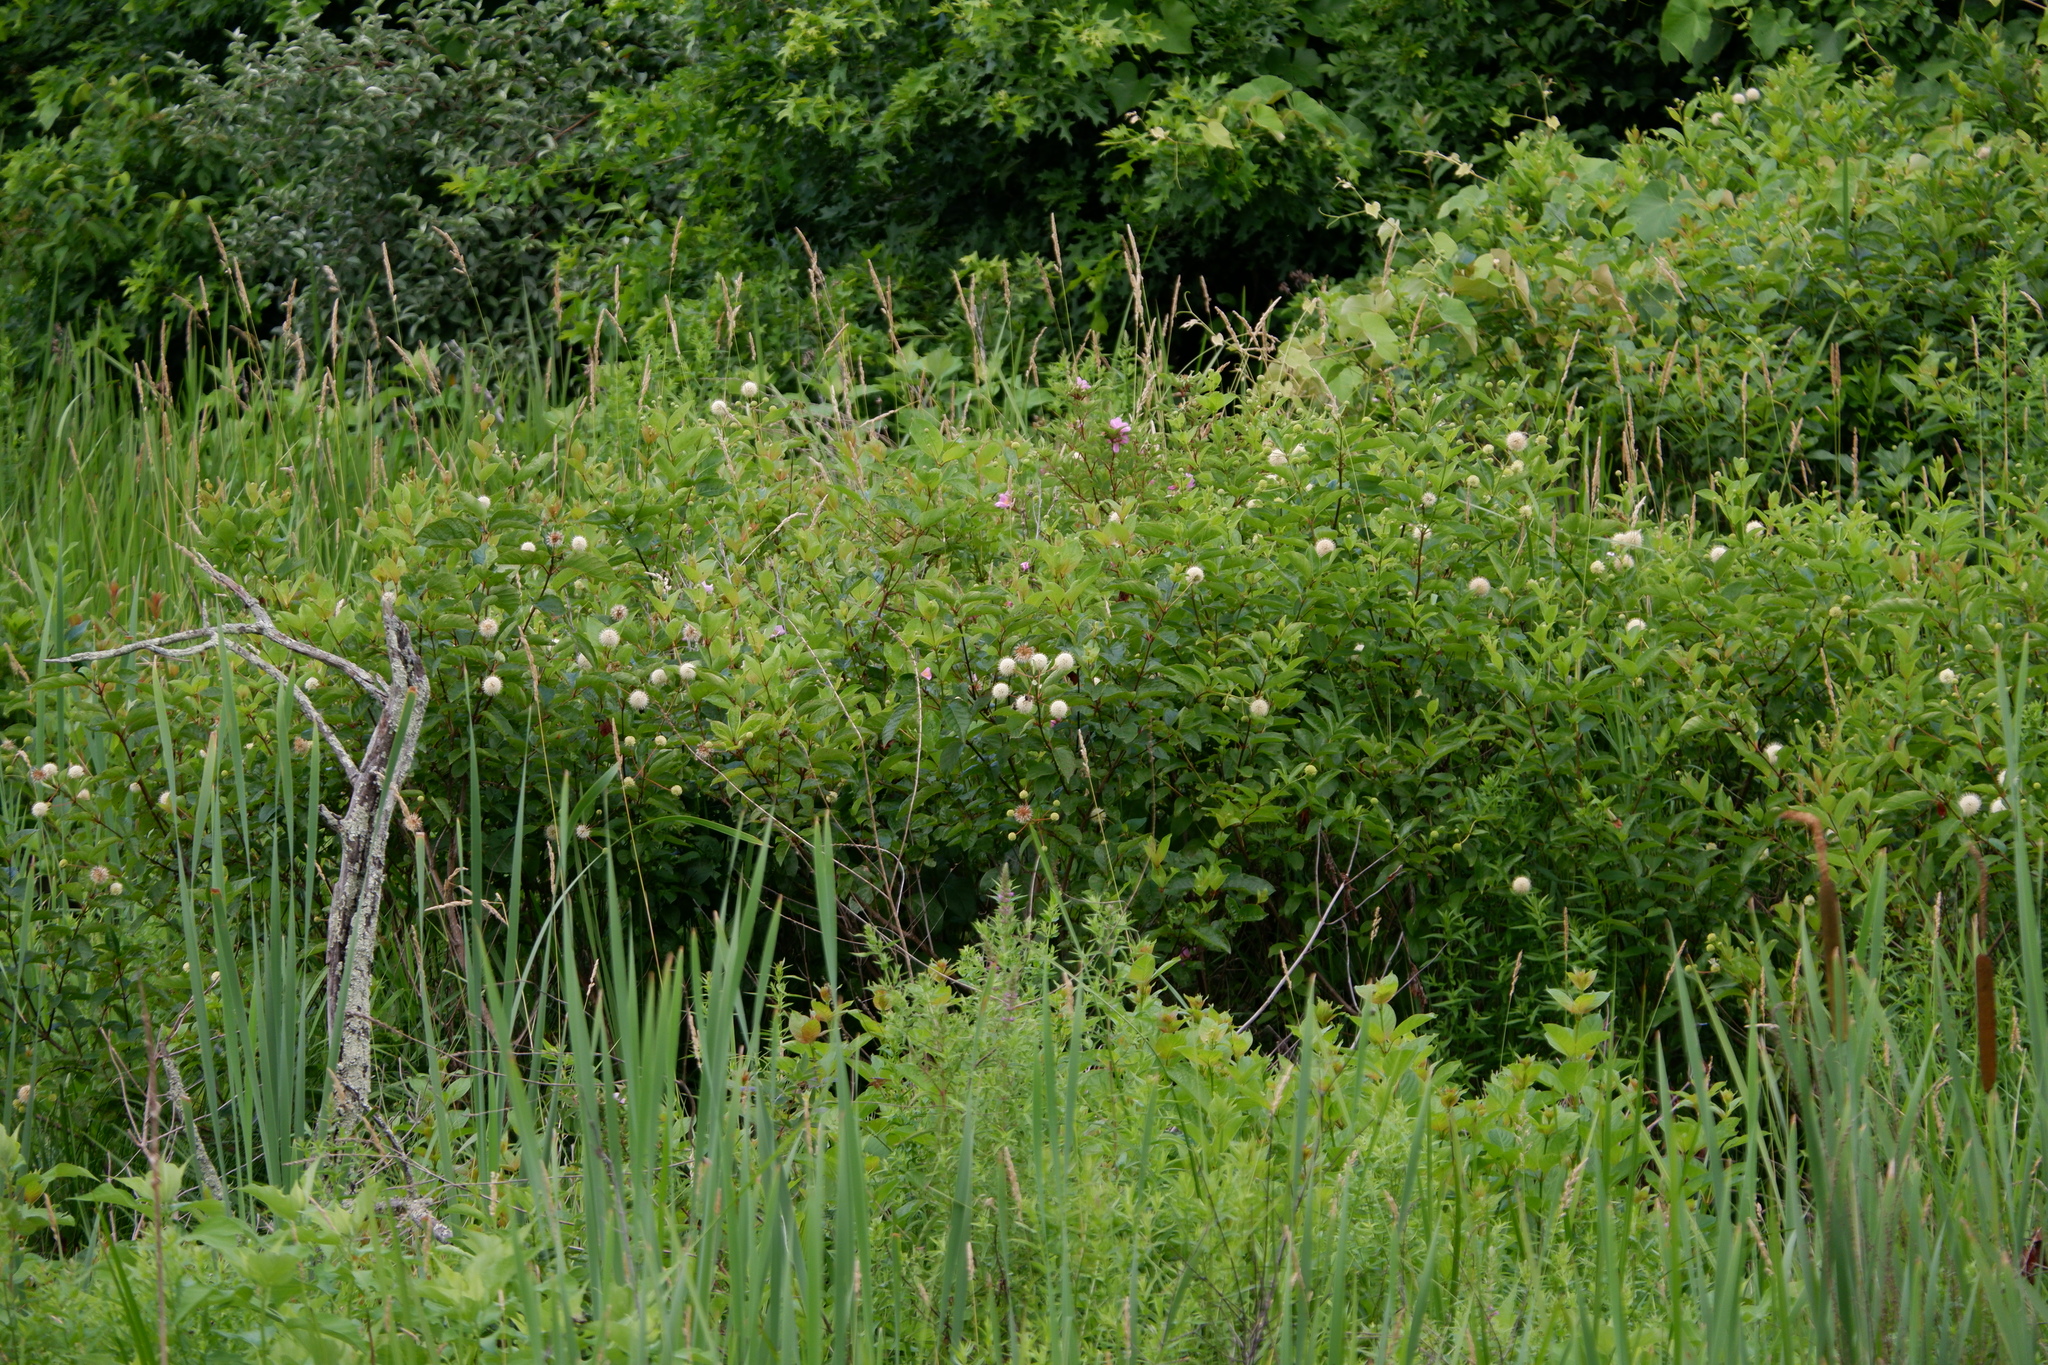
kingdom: Plantae
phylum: Tracheophyta
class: Magnoliopsida
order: Gentianales
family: Rubiaceae
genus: Cephalanthus
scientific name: Cephalanthus occidentalis
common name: Button-willow
